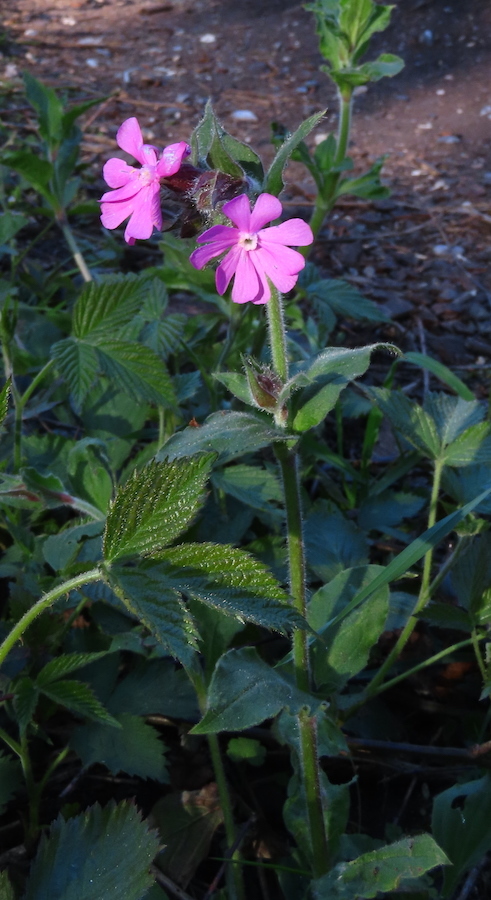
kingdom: Plantae
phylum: Tracheophyta
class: Magnoliopsida
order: Caryophyllales
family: Caryophyllaceae
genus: Silene
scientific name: Silene dioica
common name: Red campion
